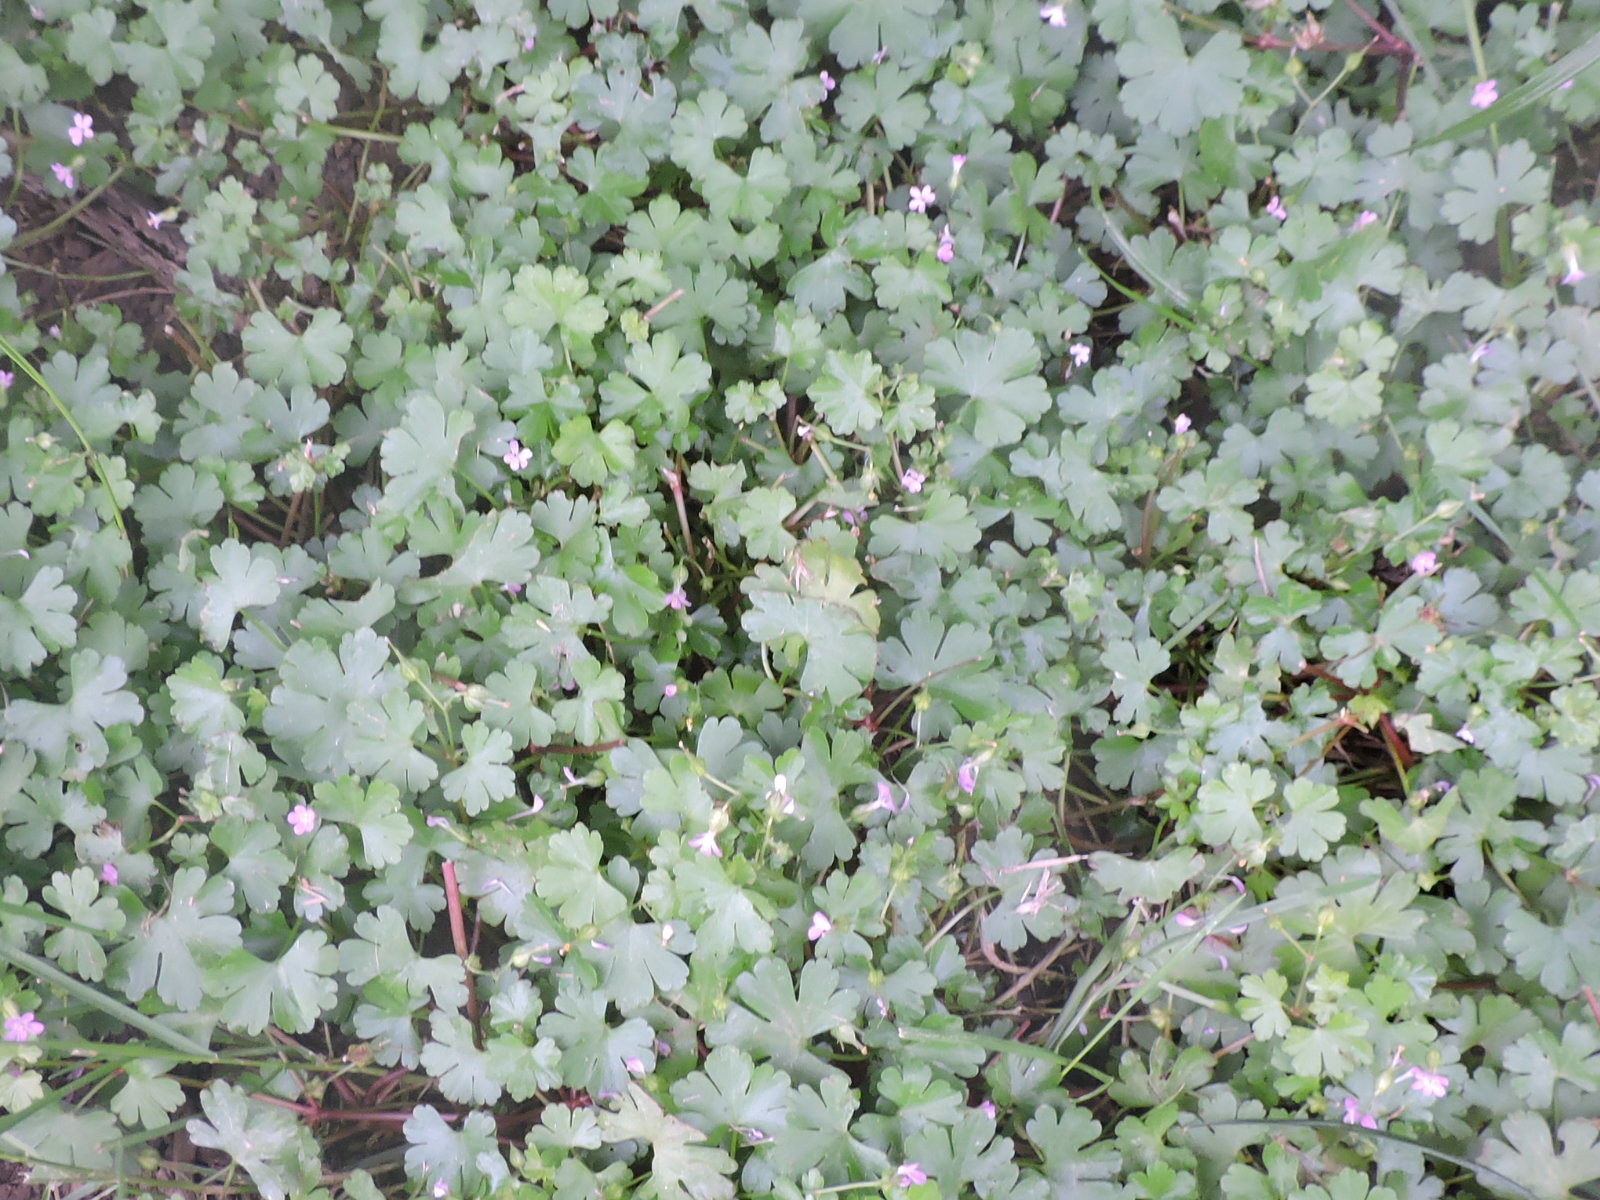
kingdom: Plantae
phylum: Tracheophyta
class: Magnoliopsida
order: Geraniales
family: Geraniaceae
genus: Geranium
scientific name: Geranium lucidum
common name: Shining crane's-bill
